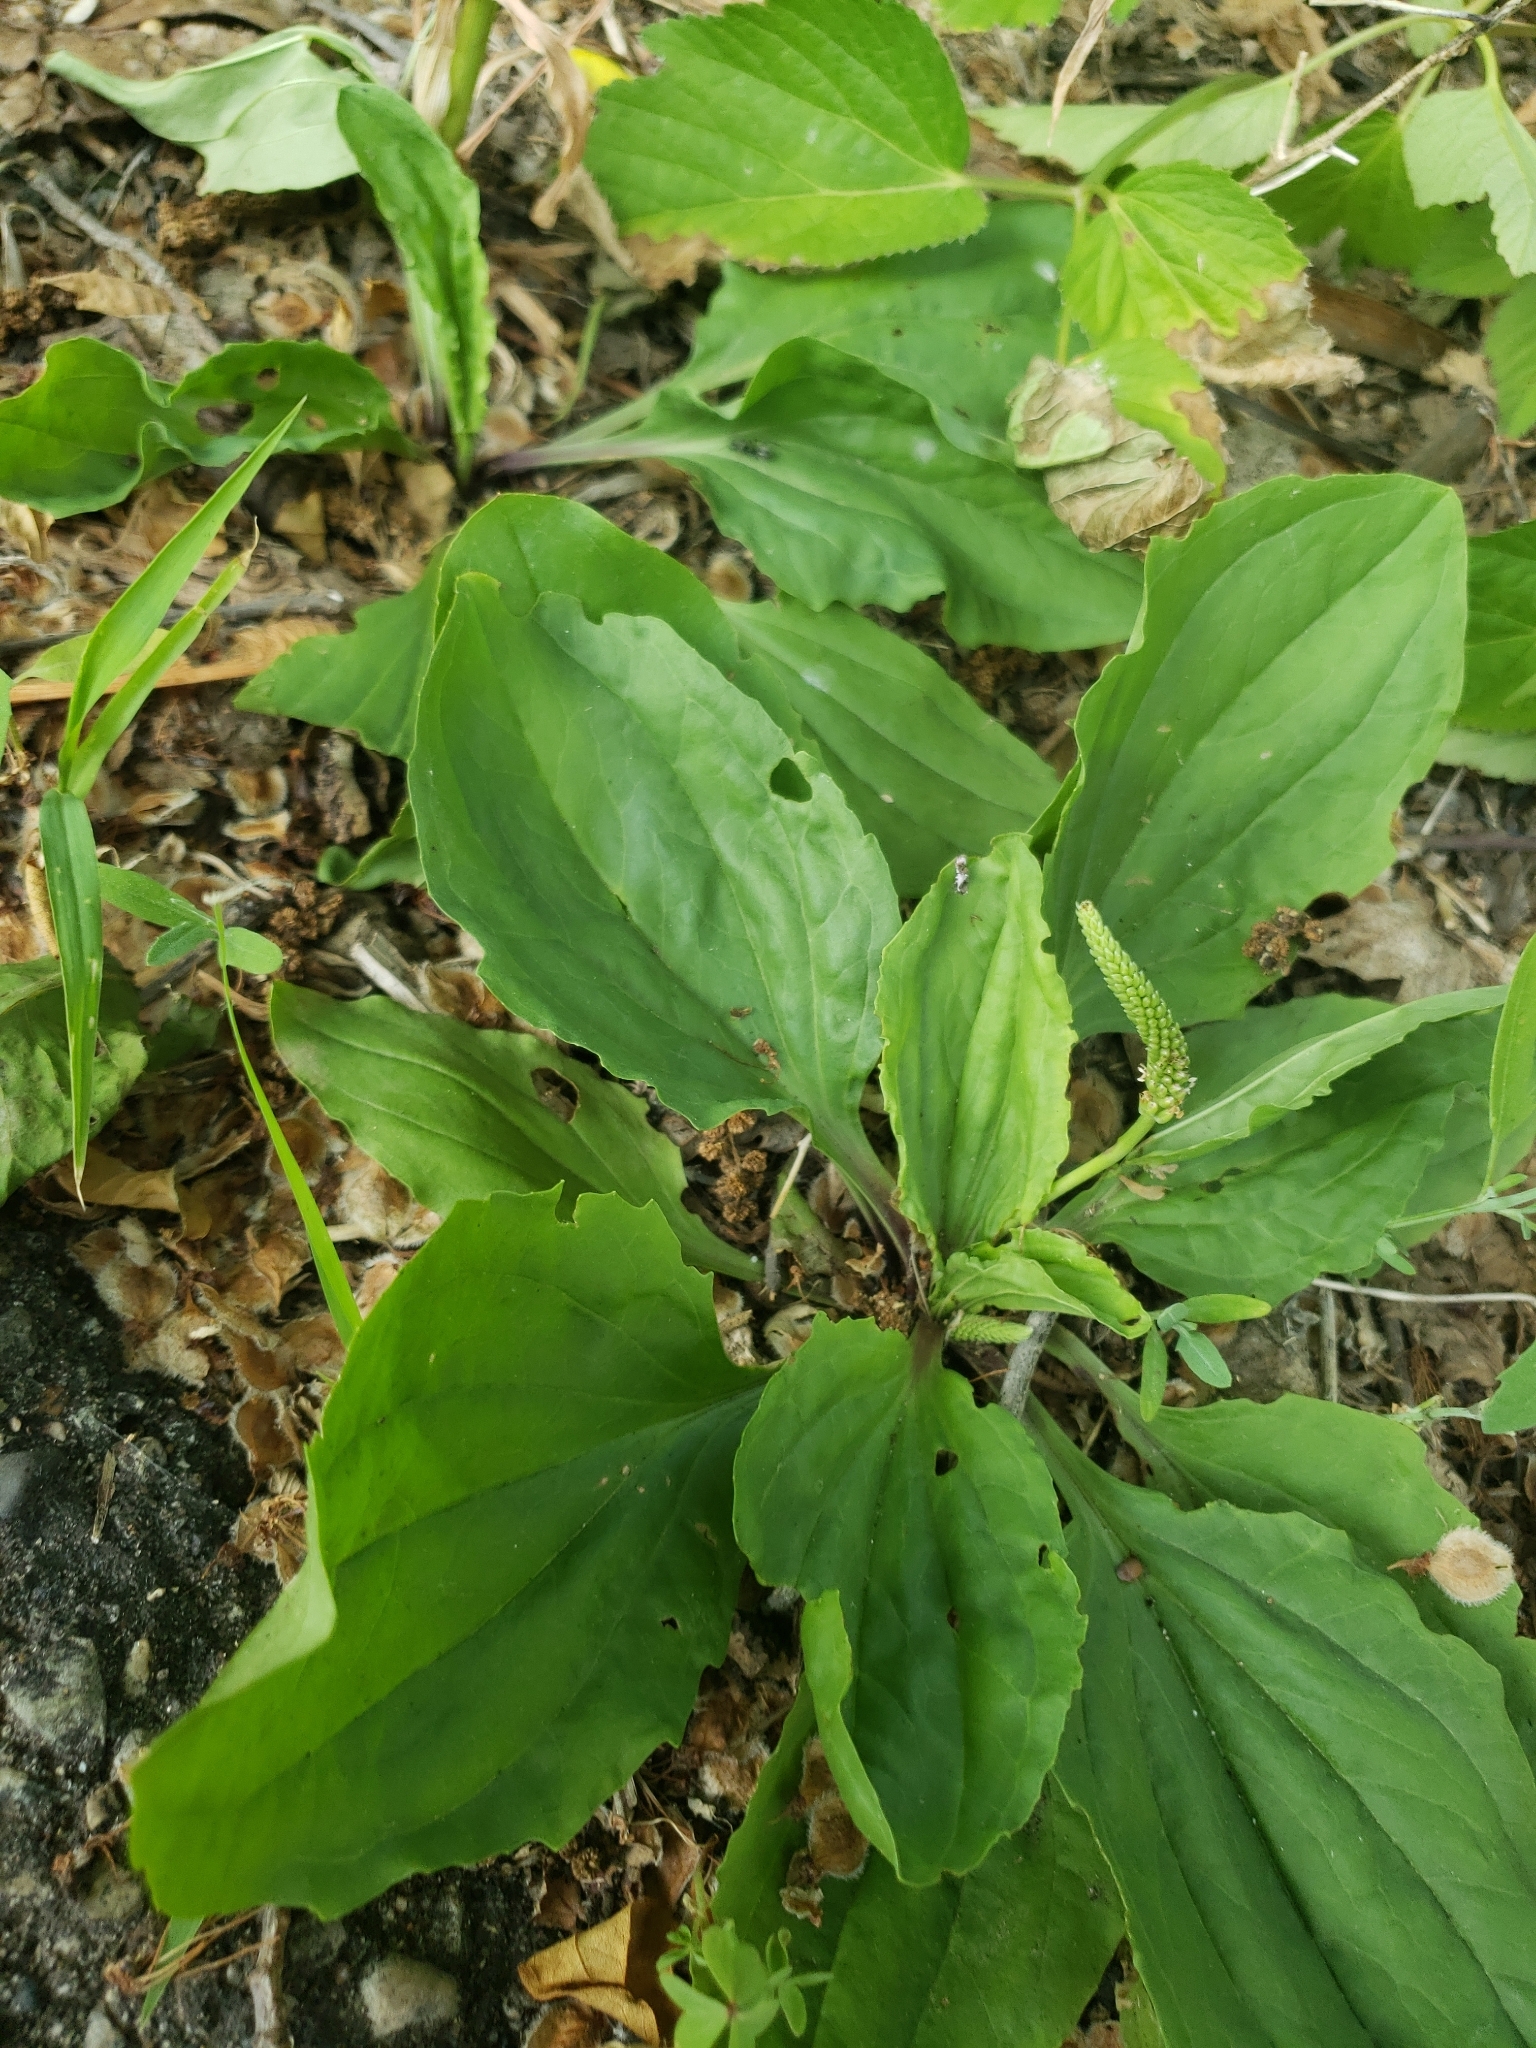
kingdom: Plantae
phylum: Tracheophyta
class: Magnoliopsida
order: Lamiales
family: Plantaginaceae
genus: Plantago
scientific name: Plantago rugelii
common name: American plantain
